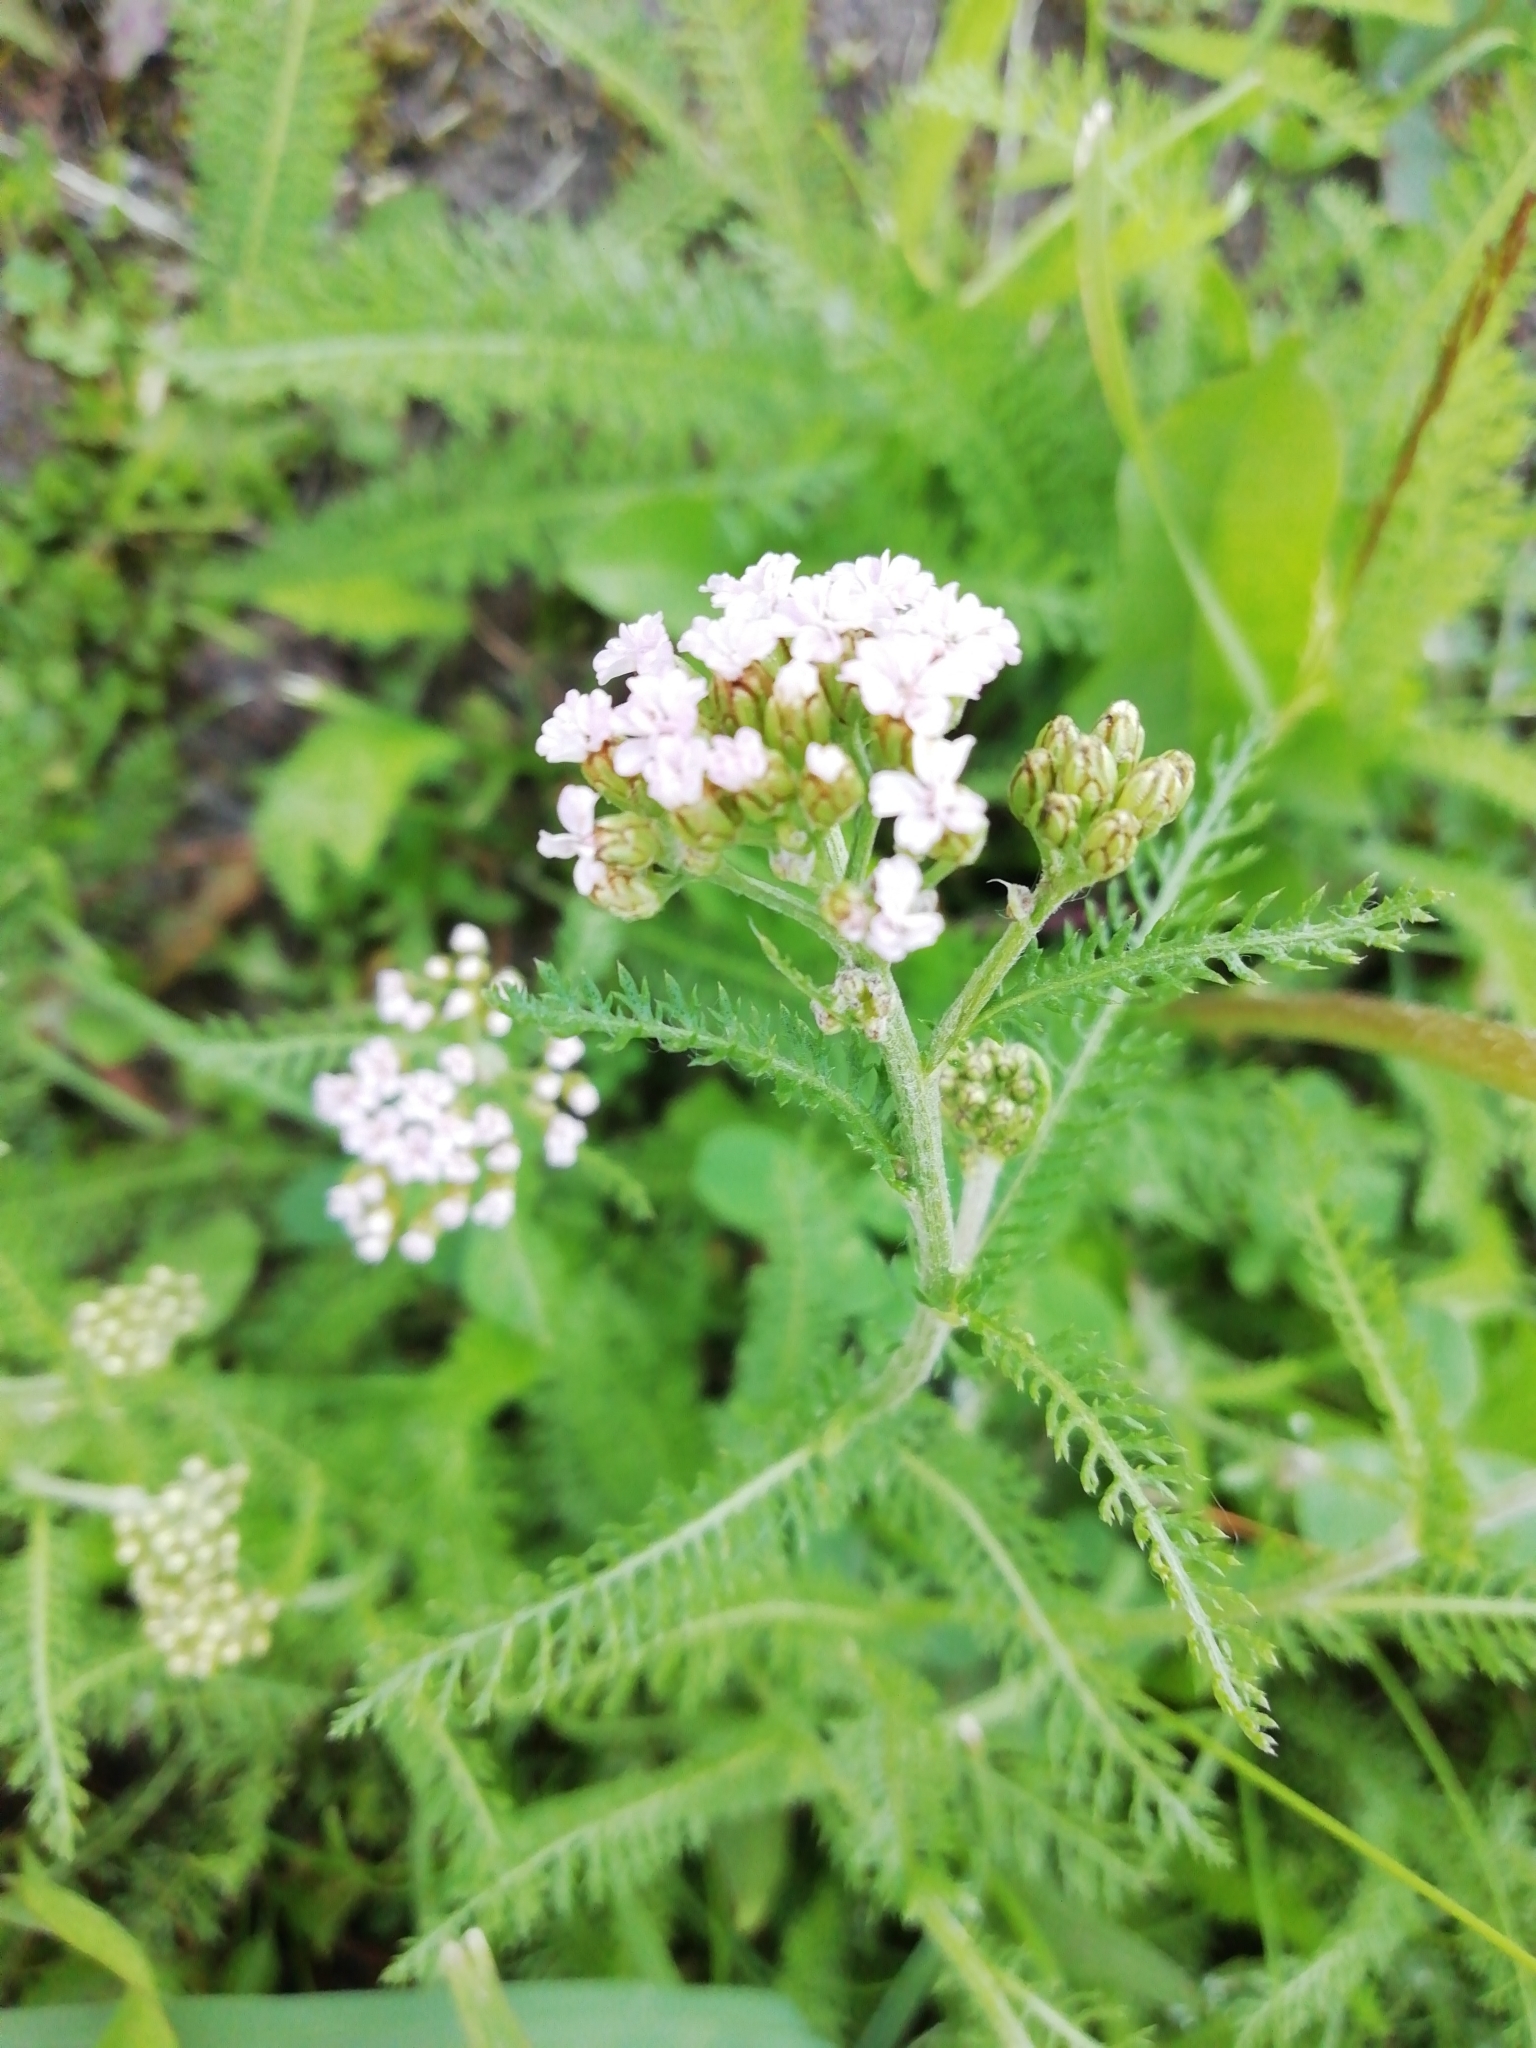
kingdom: Plantae
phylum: Tracheophyta
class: Magnoliopsida
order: Asterales
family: Asteraceae
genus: Achillea
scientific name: Achillea millefolium
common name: Yarrow
